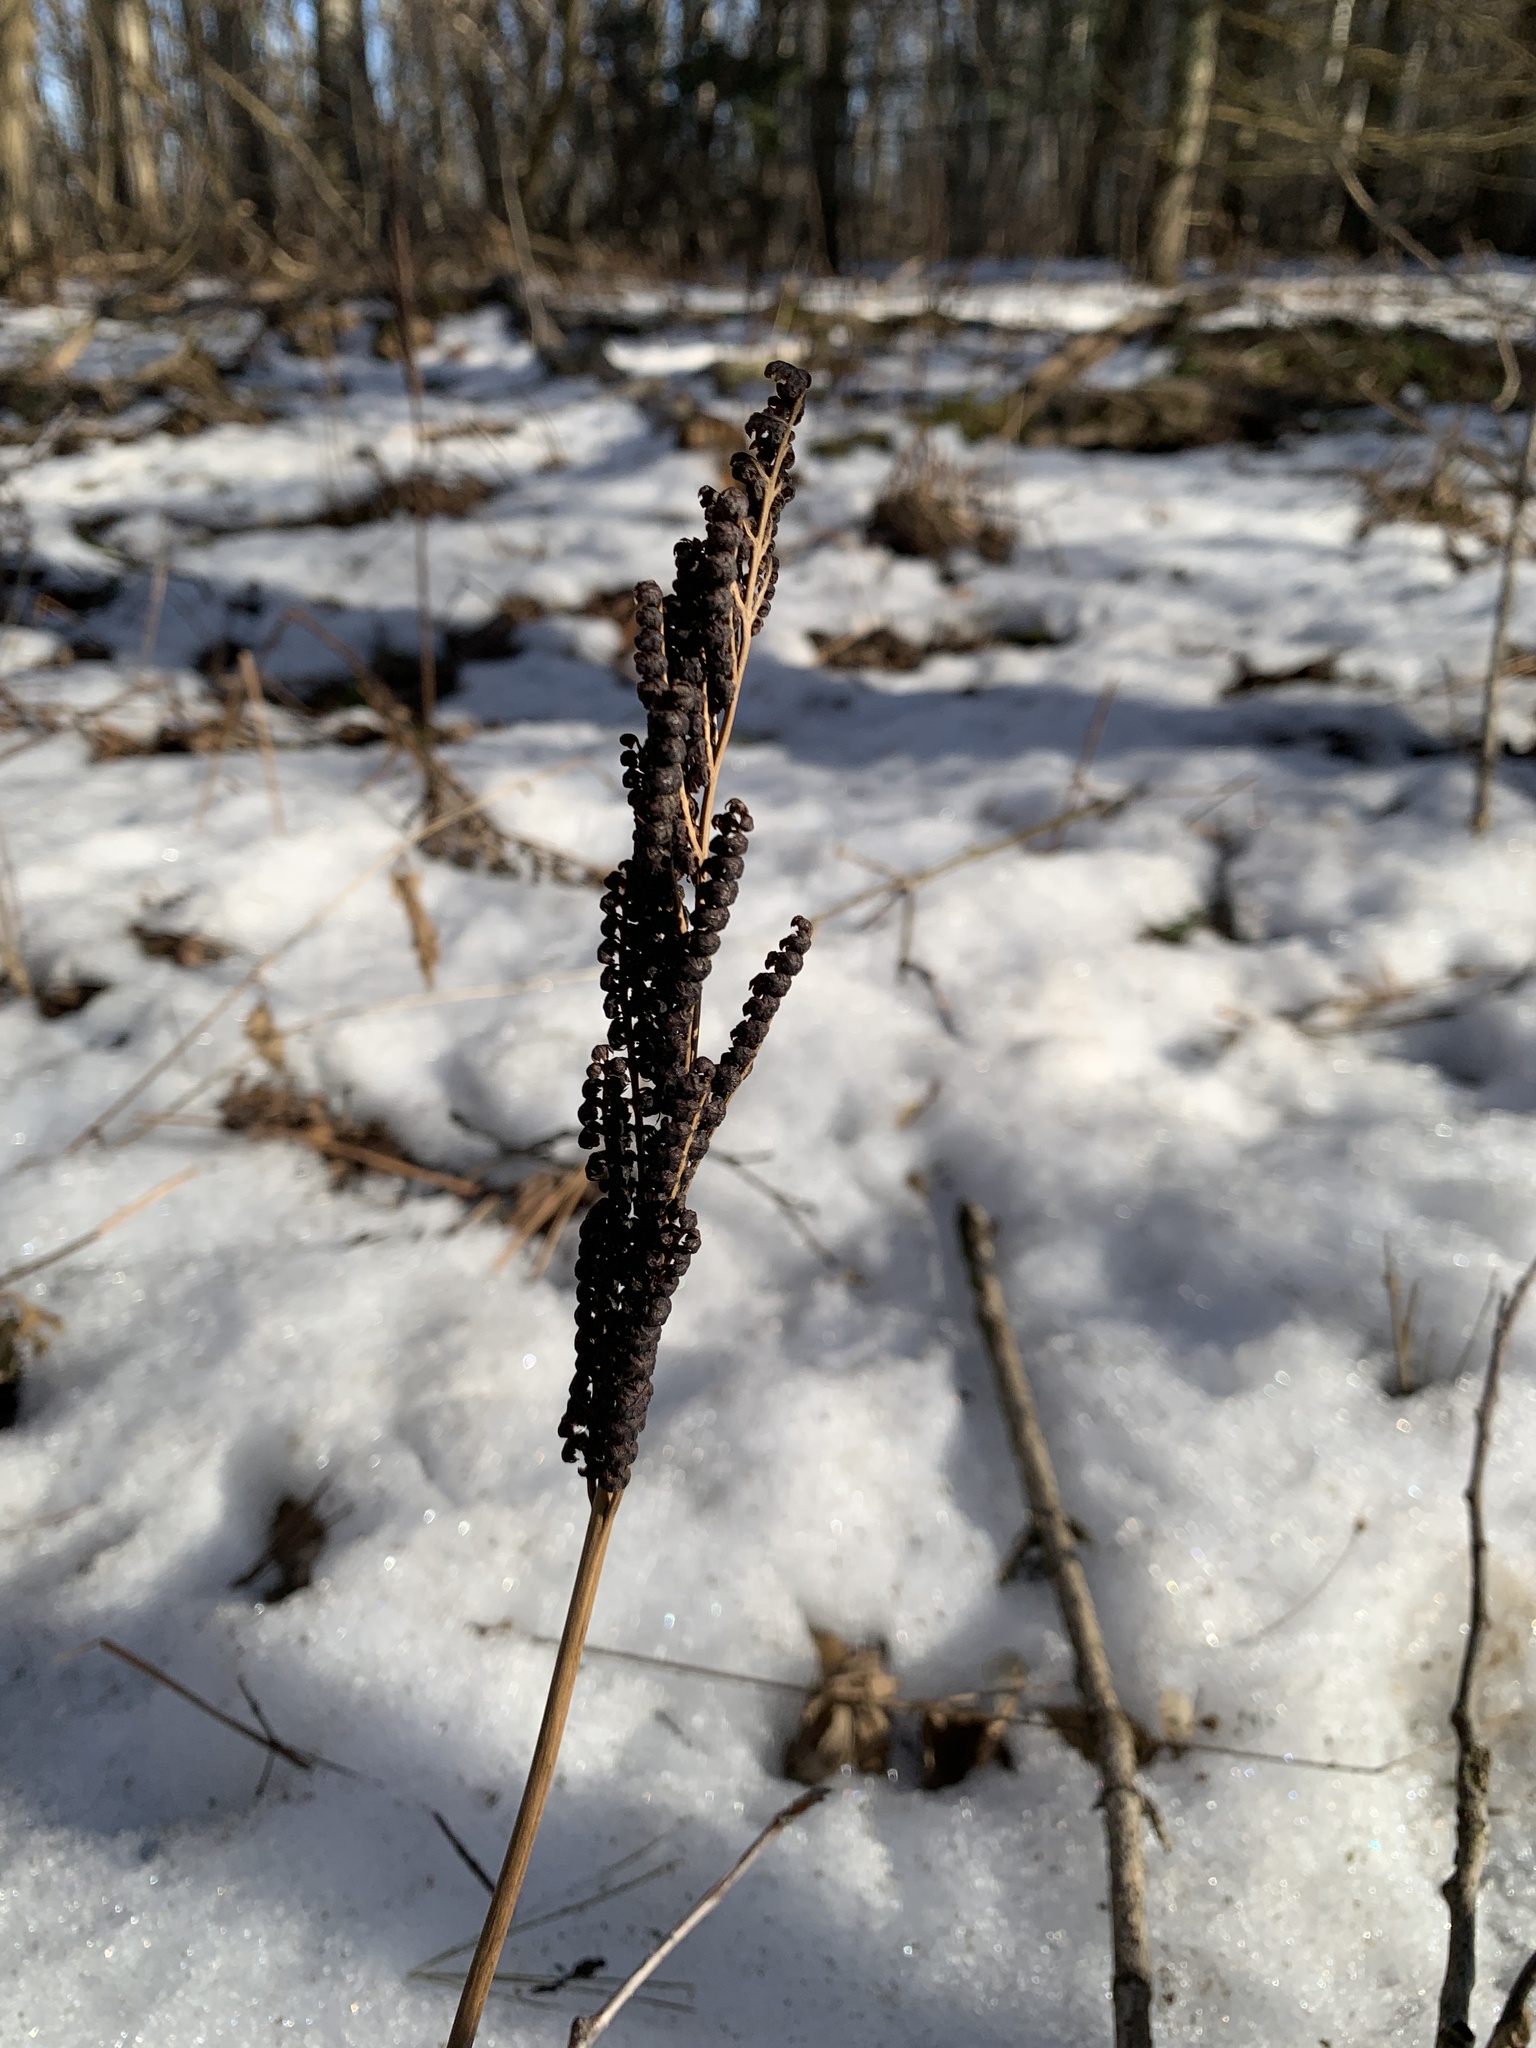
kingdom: Plantae
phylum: Tracheophyta
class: Polypodiopsida
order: Polypodiales
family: Onocleaceae
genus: Onoclea
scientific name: Onoclea sensibilis
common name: Sensitive fern
